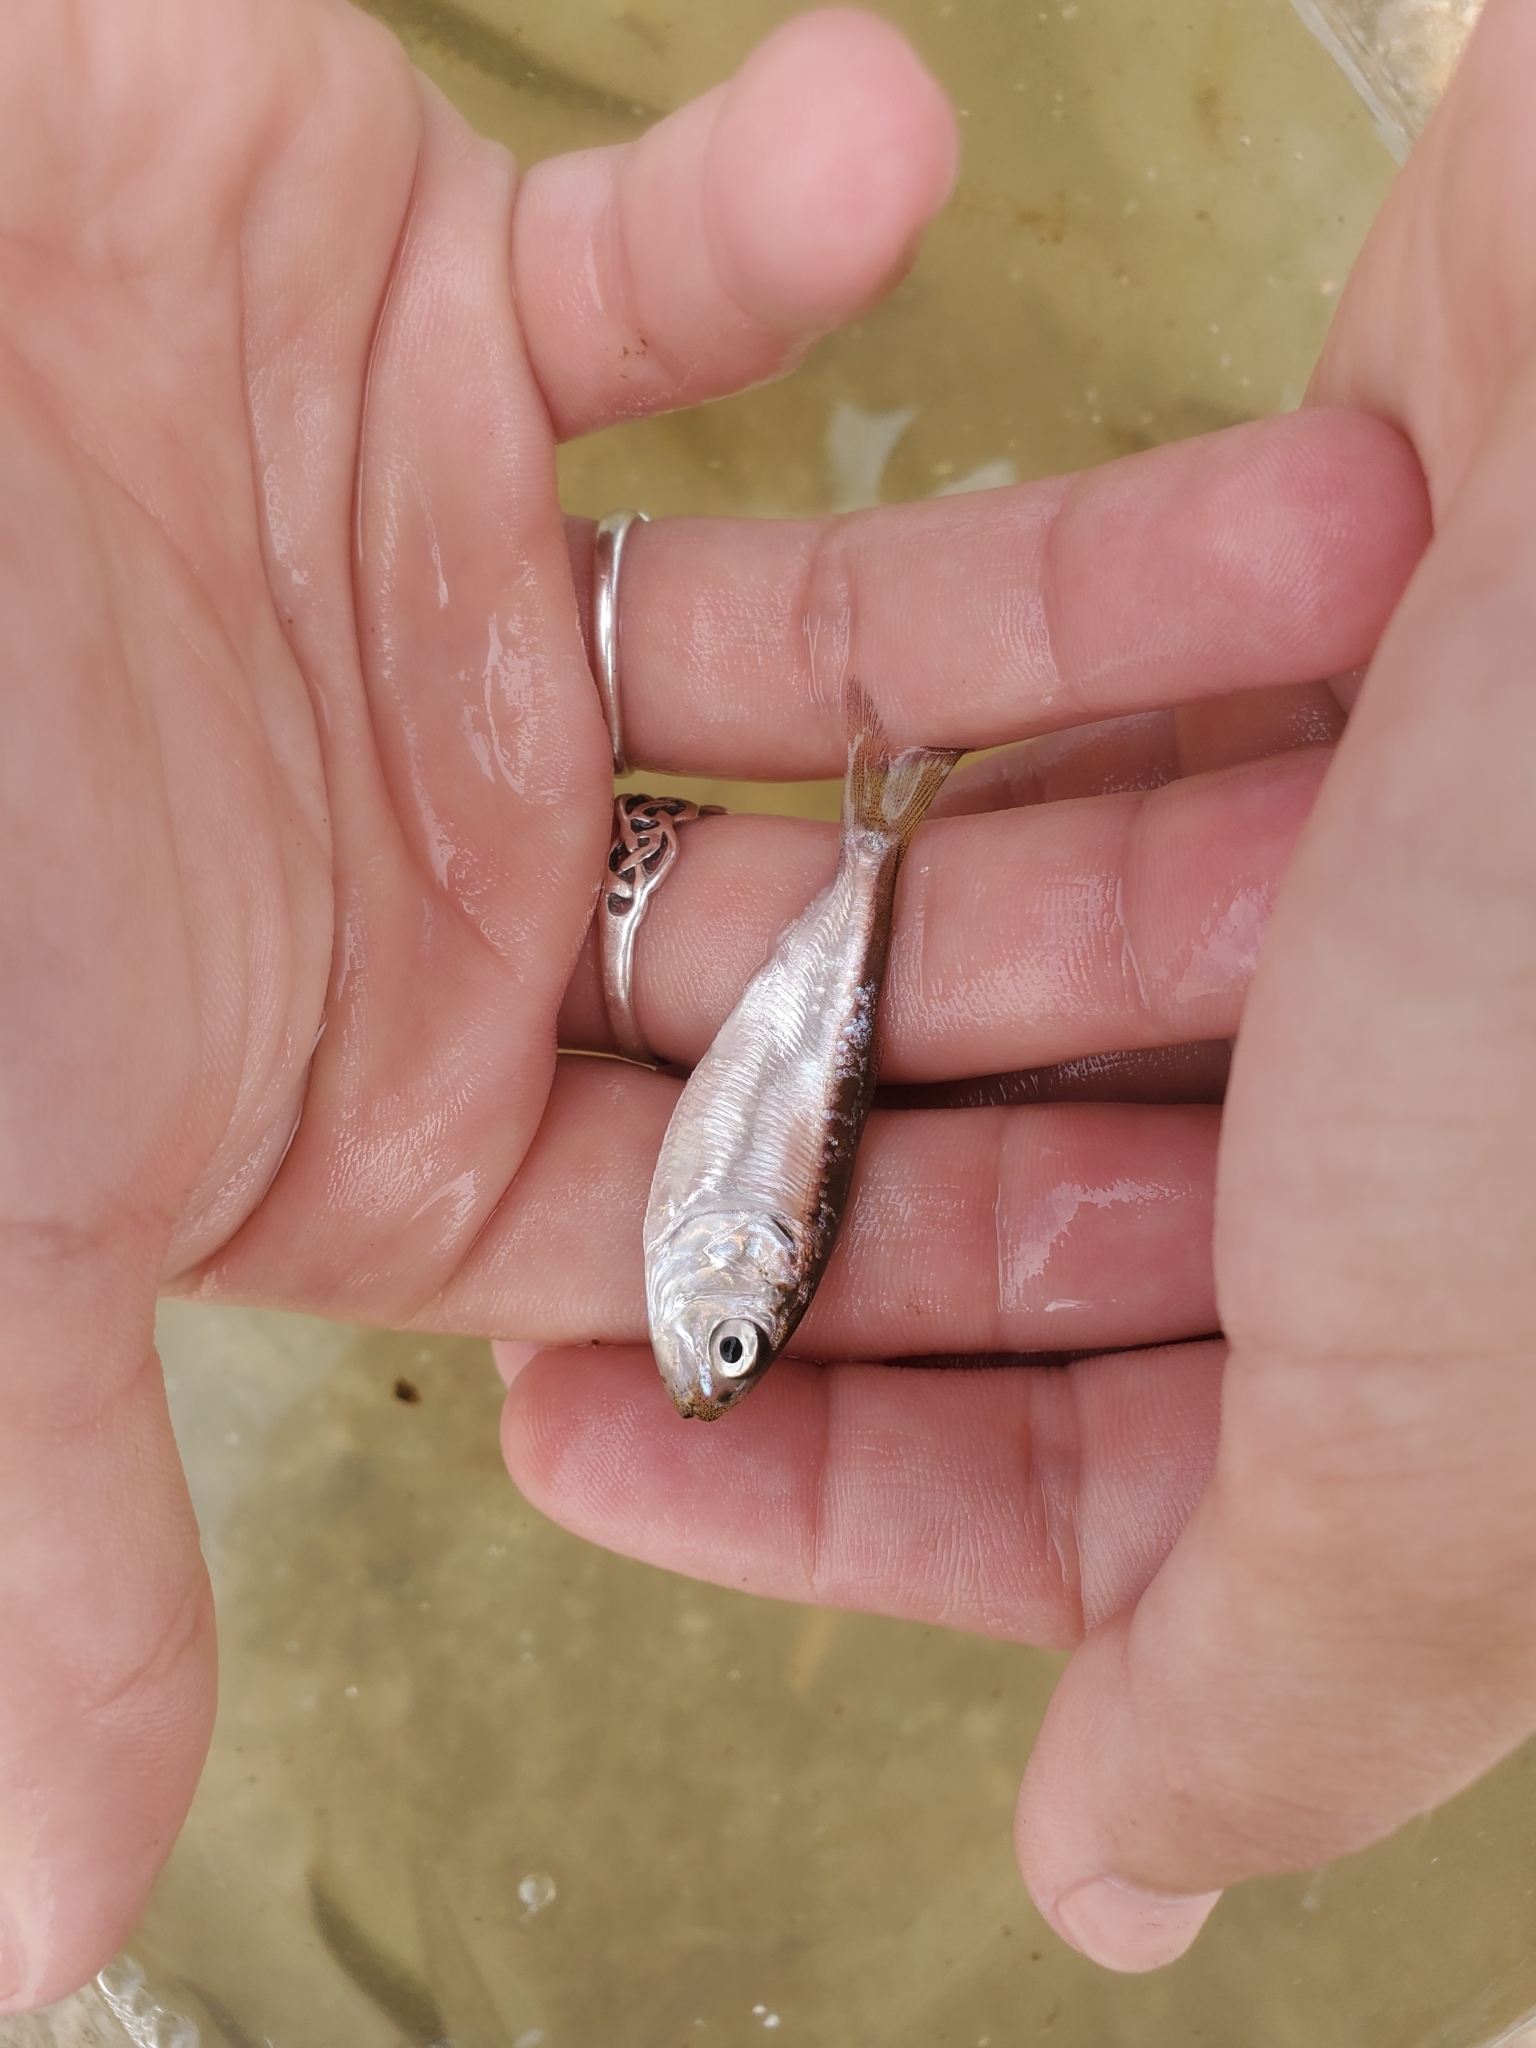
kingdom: Animalia
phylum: Chordata
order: Clupeiformes
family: Clupeidae
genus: Brevoortia
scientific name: Brevoortia tyrannus
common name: Atlantic menhaden
